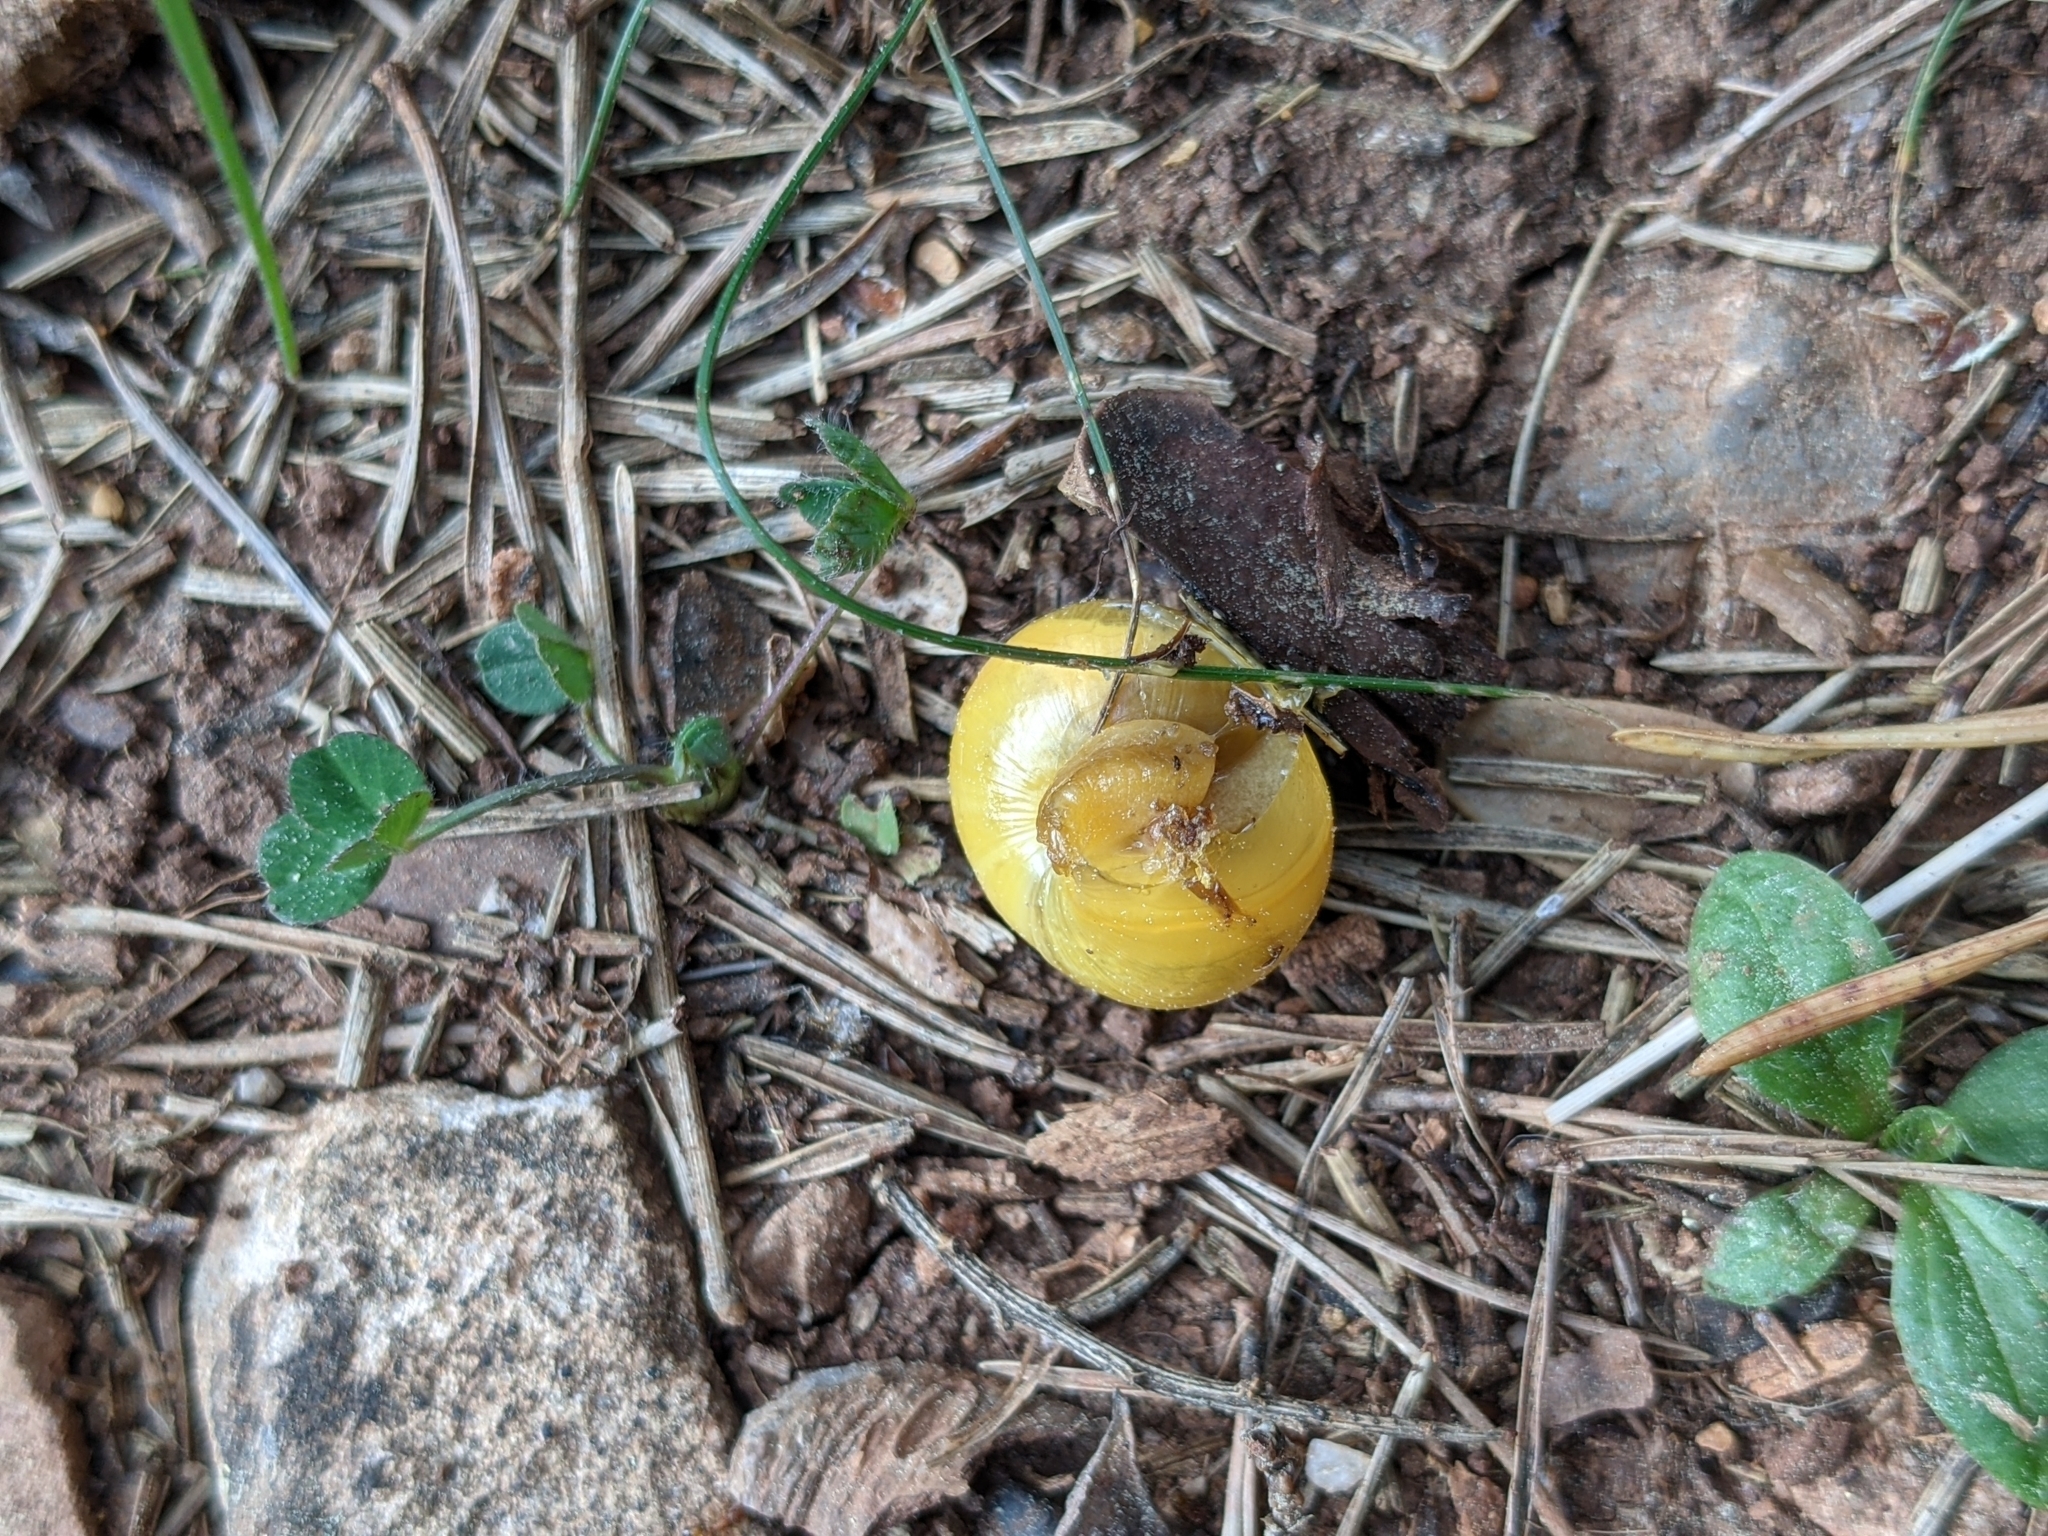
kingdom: Animalia
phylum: Mollusca
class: Gastropoda
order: Stylommatophora
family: Helicidae
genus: Cepaea
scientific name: Cepaea
